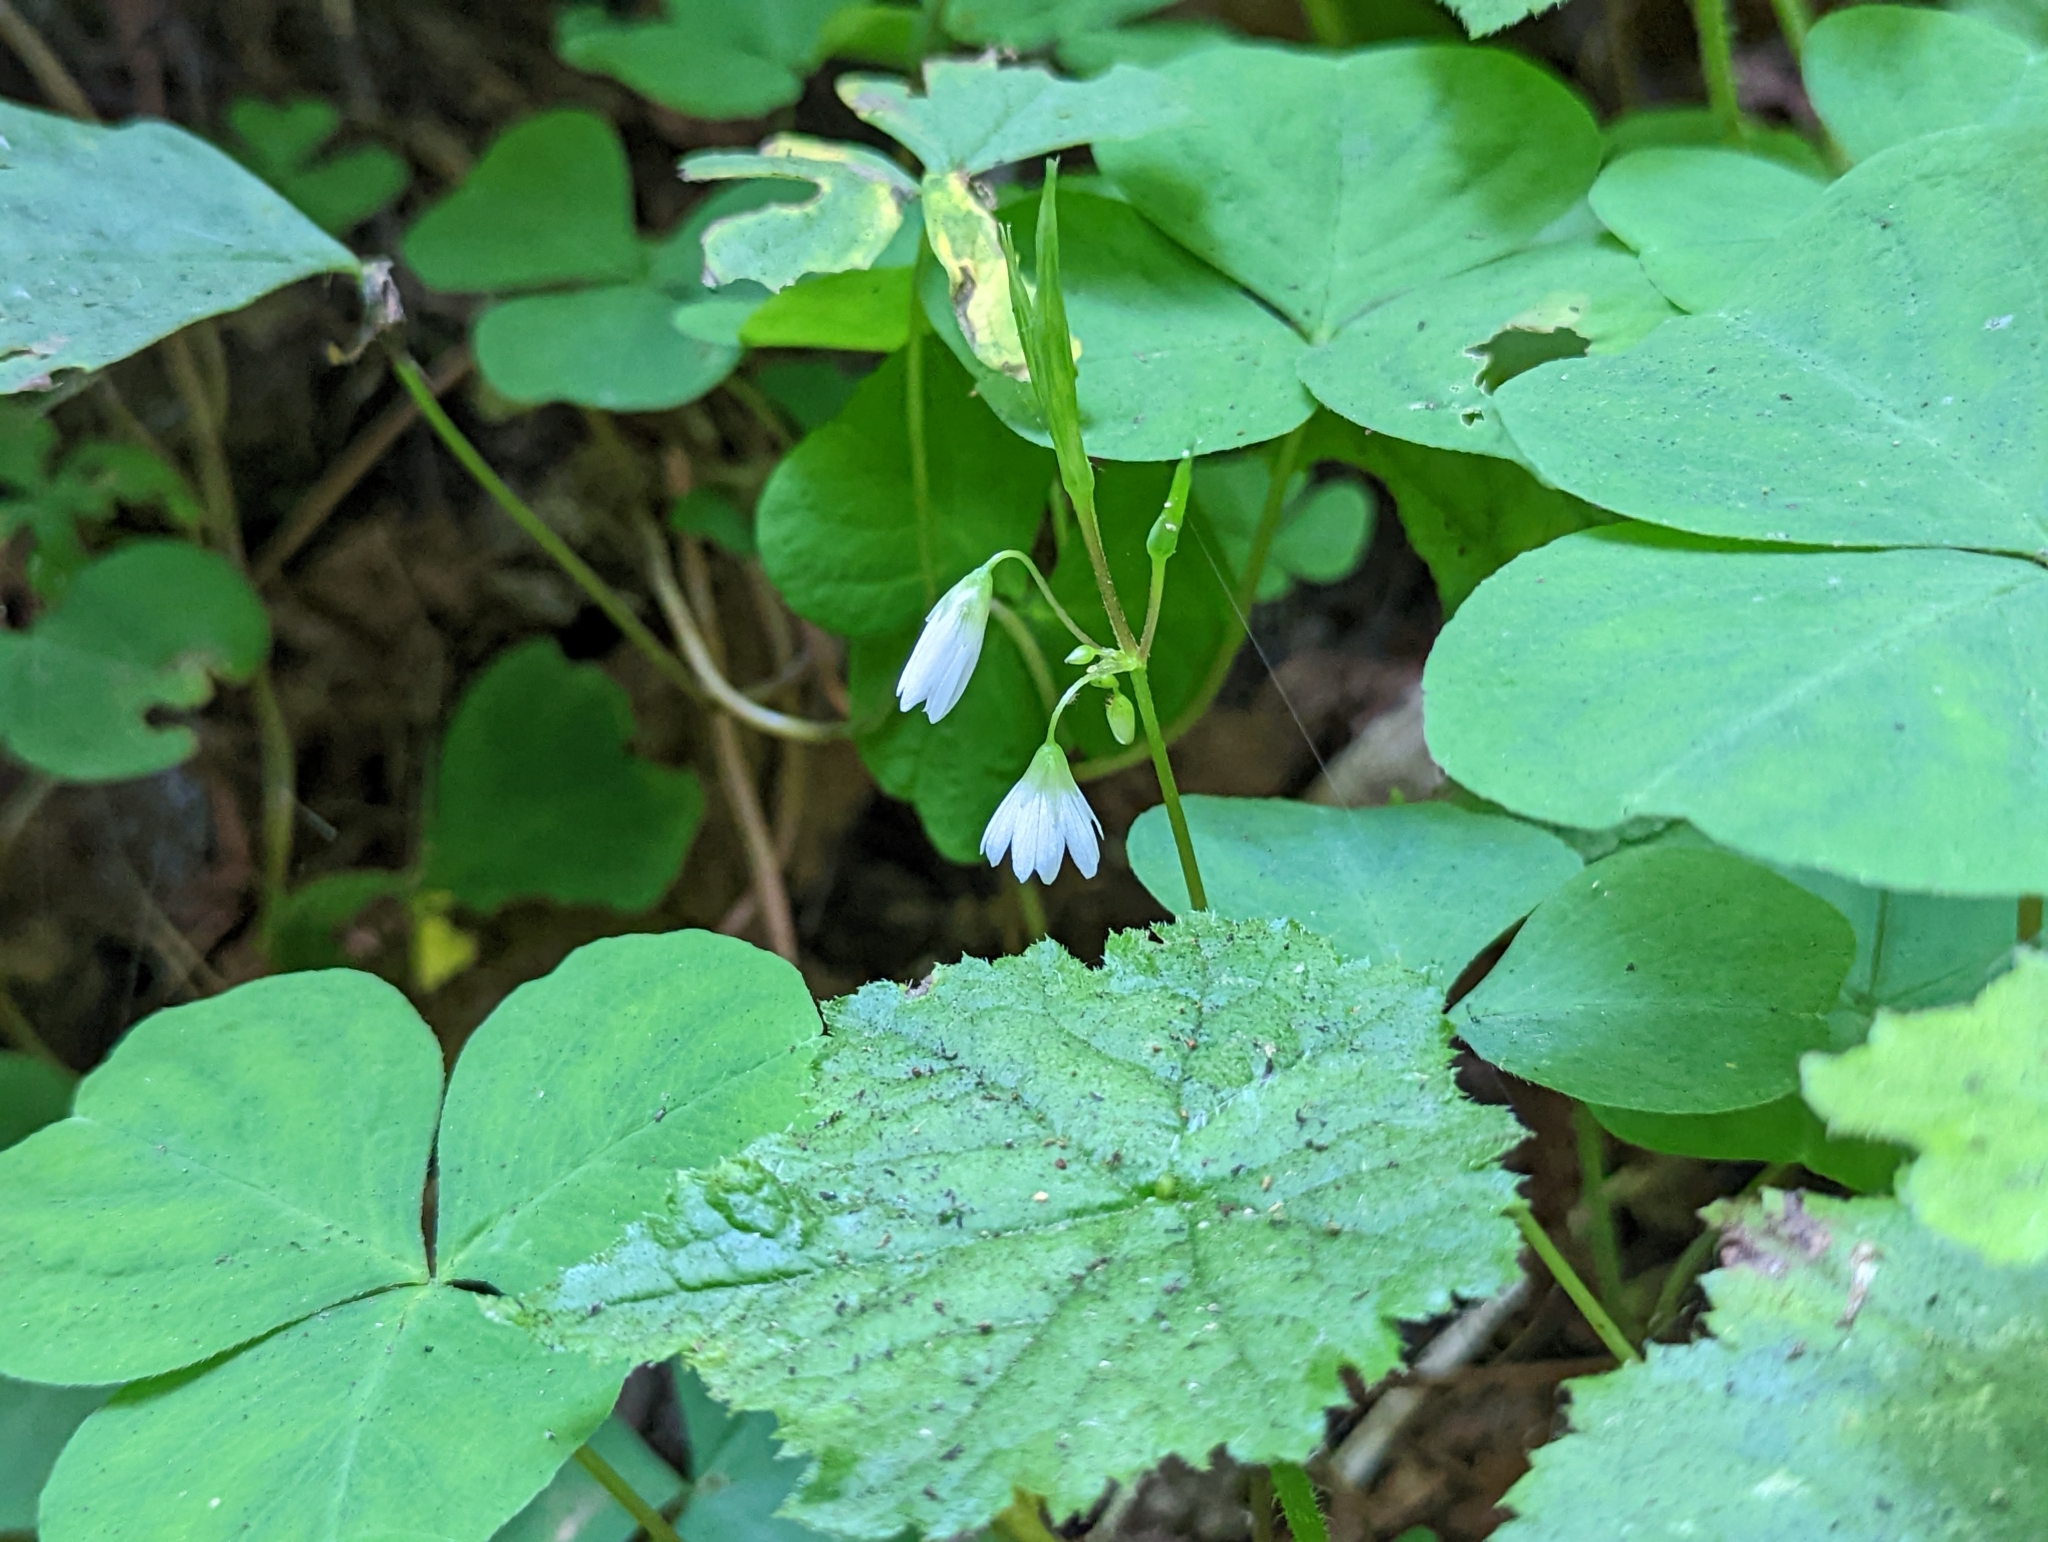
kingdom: Plantae
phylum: Tracheophyta
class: Magnoliopsida
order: Oxalidales
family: Oxalidaceae
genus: Oxalis
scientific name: Oxalis trilliifolia
